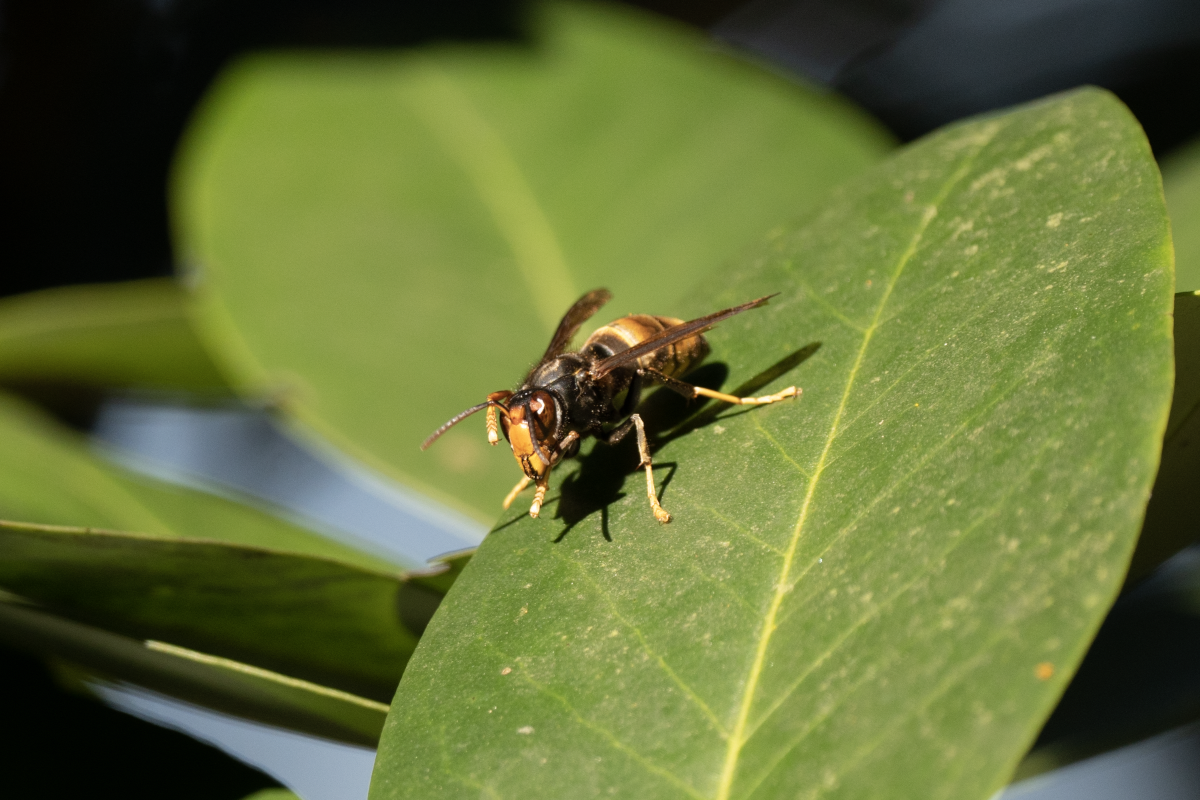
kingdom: Animalia
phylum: Arthropoda
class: Insecta
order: Hymenoptera
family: Vespidae
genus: Vespa
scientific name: Vespa velutina
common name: Asian hornet
